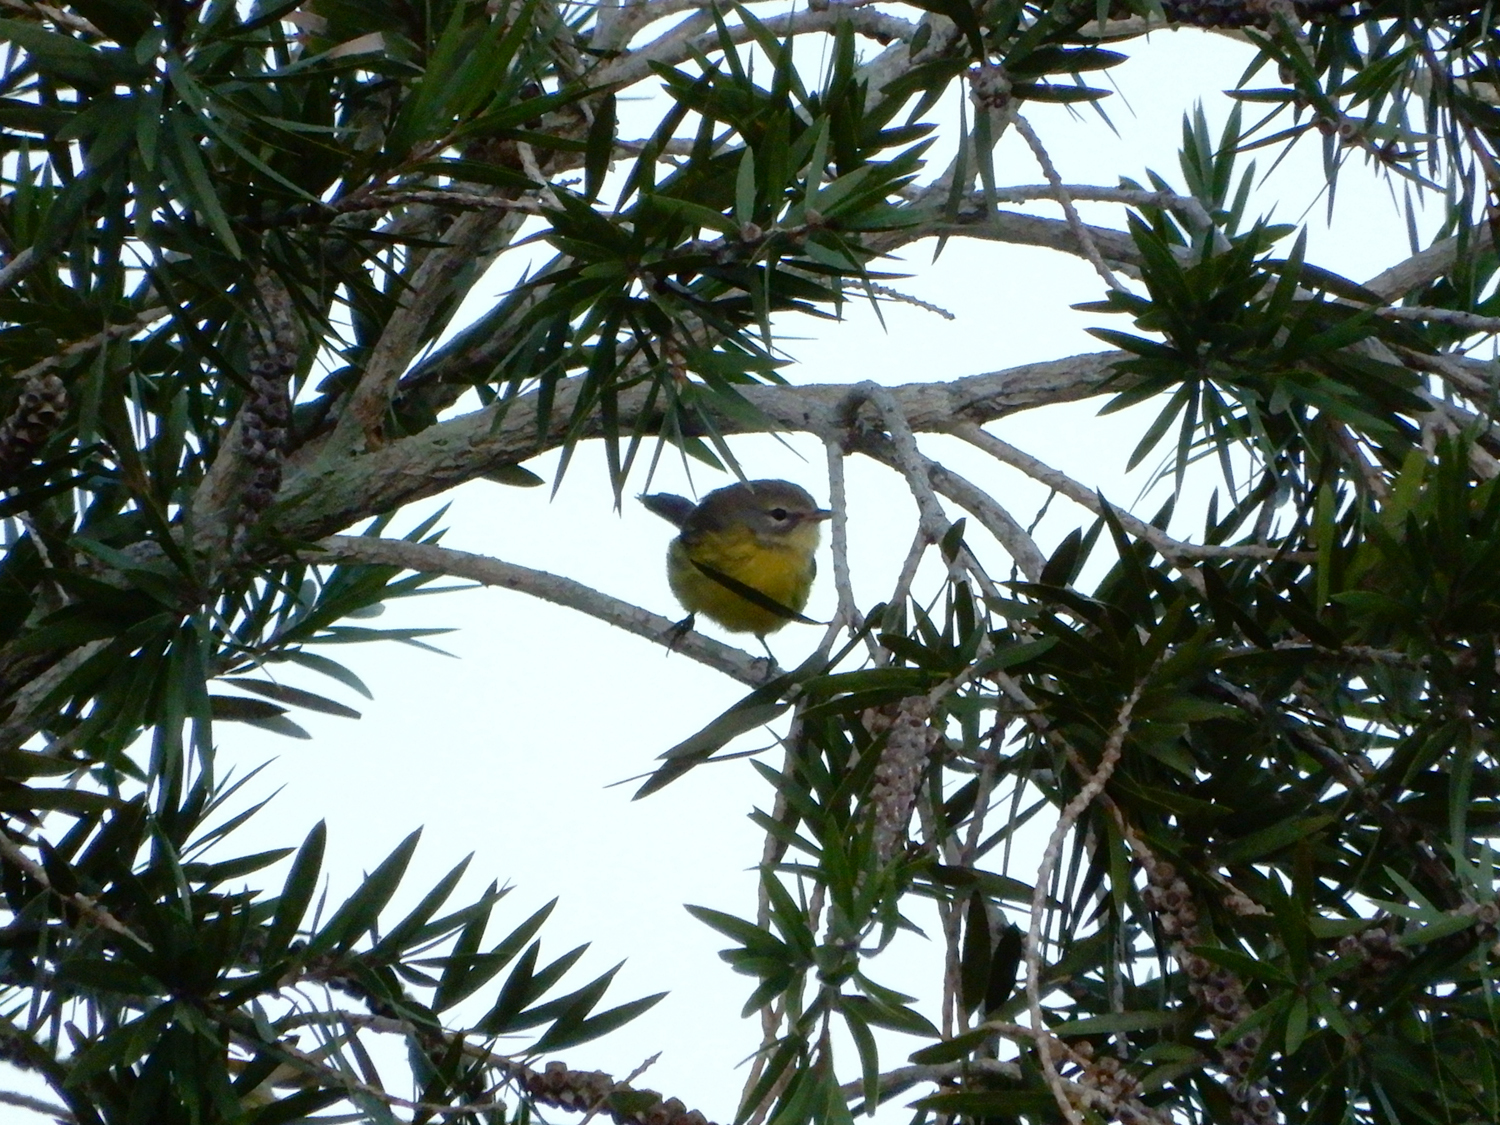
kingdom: Animalia
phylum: Chordata
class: Aves
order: Passeriformes
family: Parulidae
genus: Setophaga
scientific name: Setophaga discolor
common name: Prairie warbler
